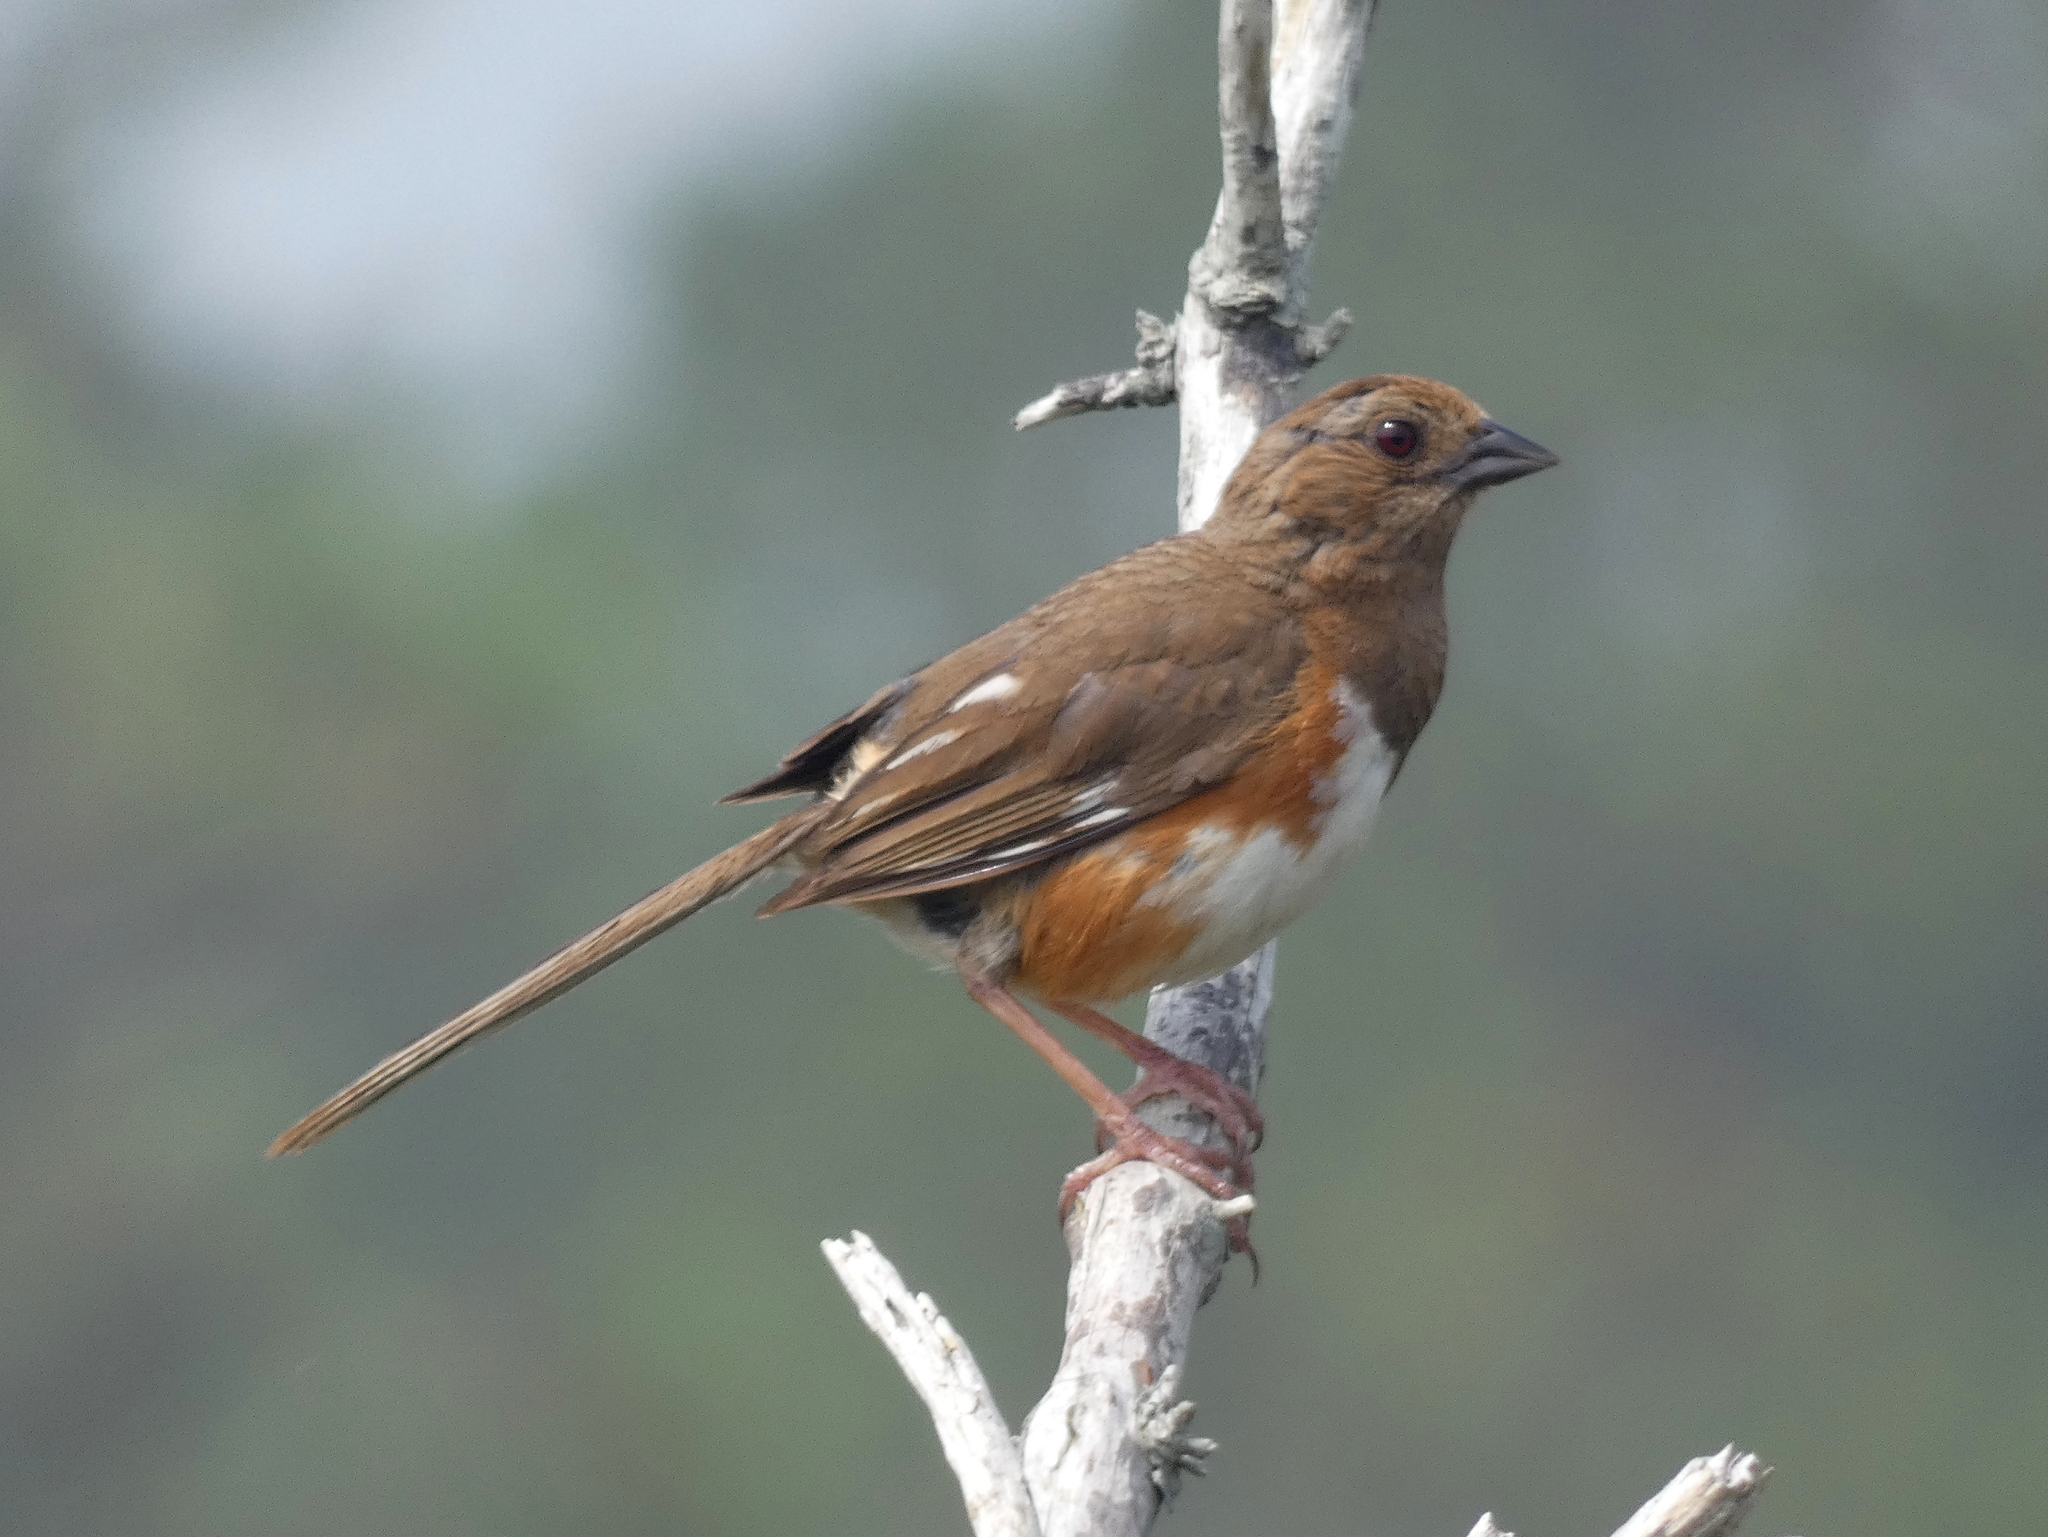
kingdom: Animalia
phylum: Chordata
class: Aves
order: Passeriformes
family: Passerellidae
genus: Pipilo
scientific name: Pipilo erythrophthalmus
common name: Eastern towhee
